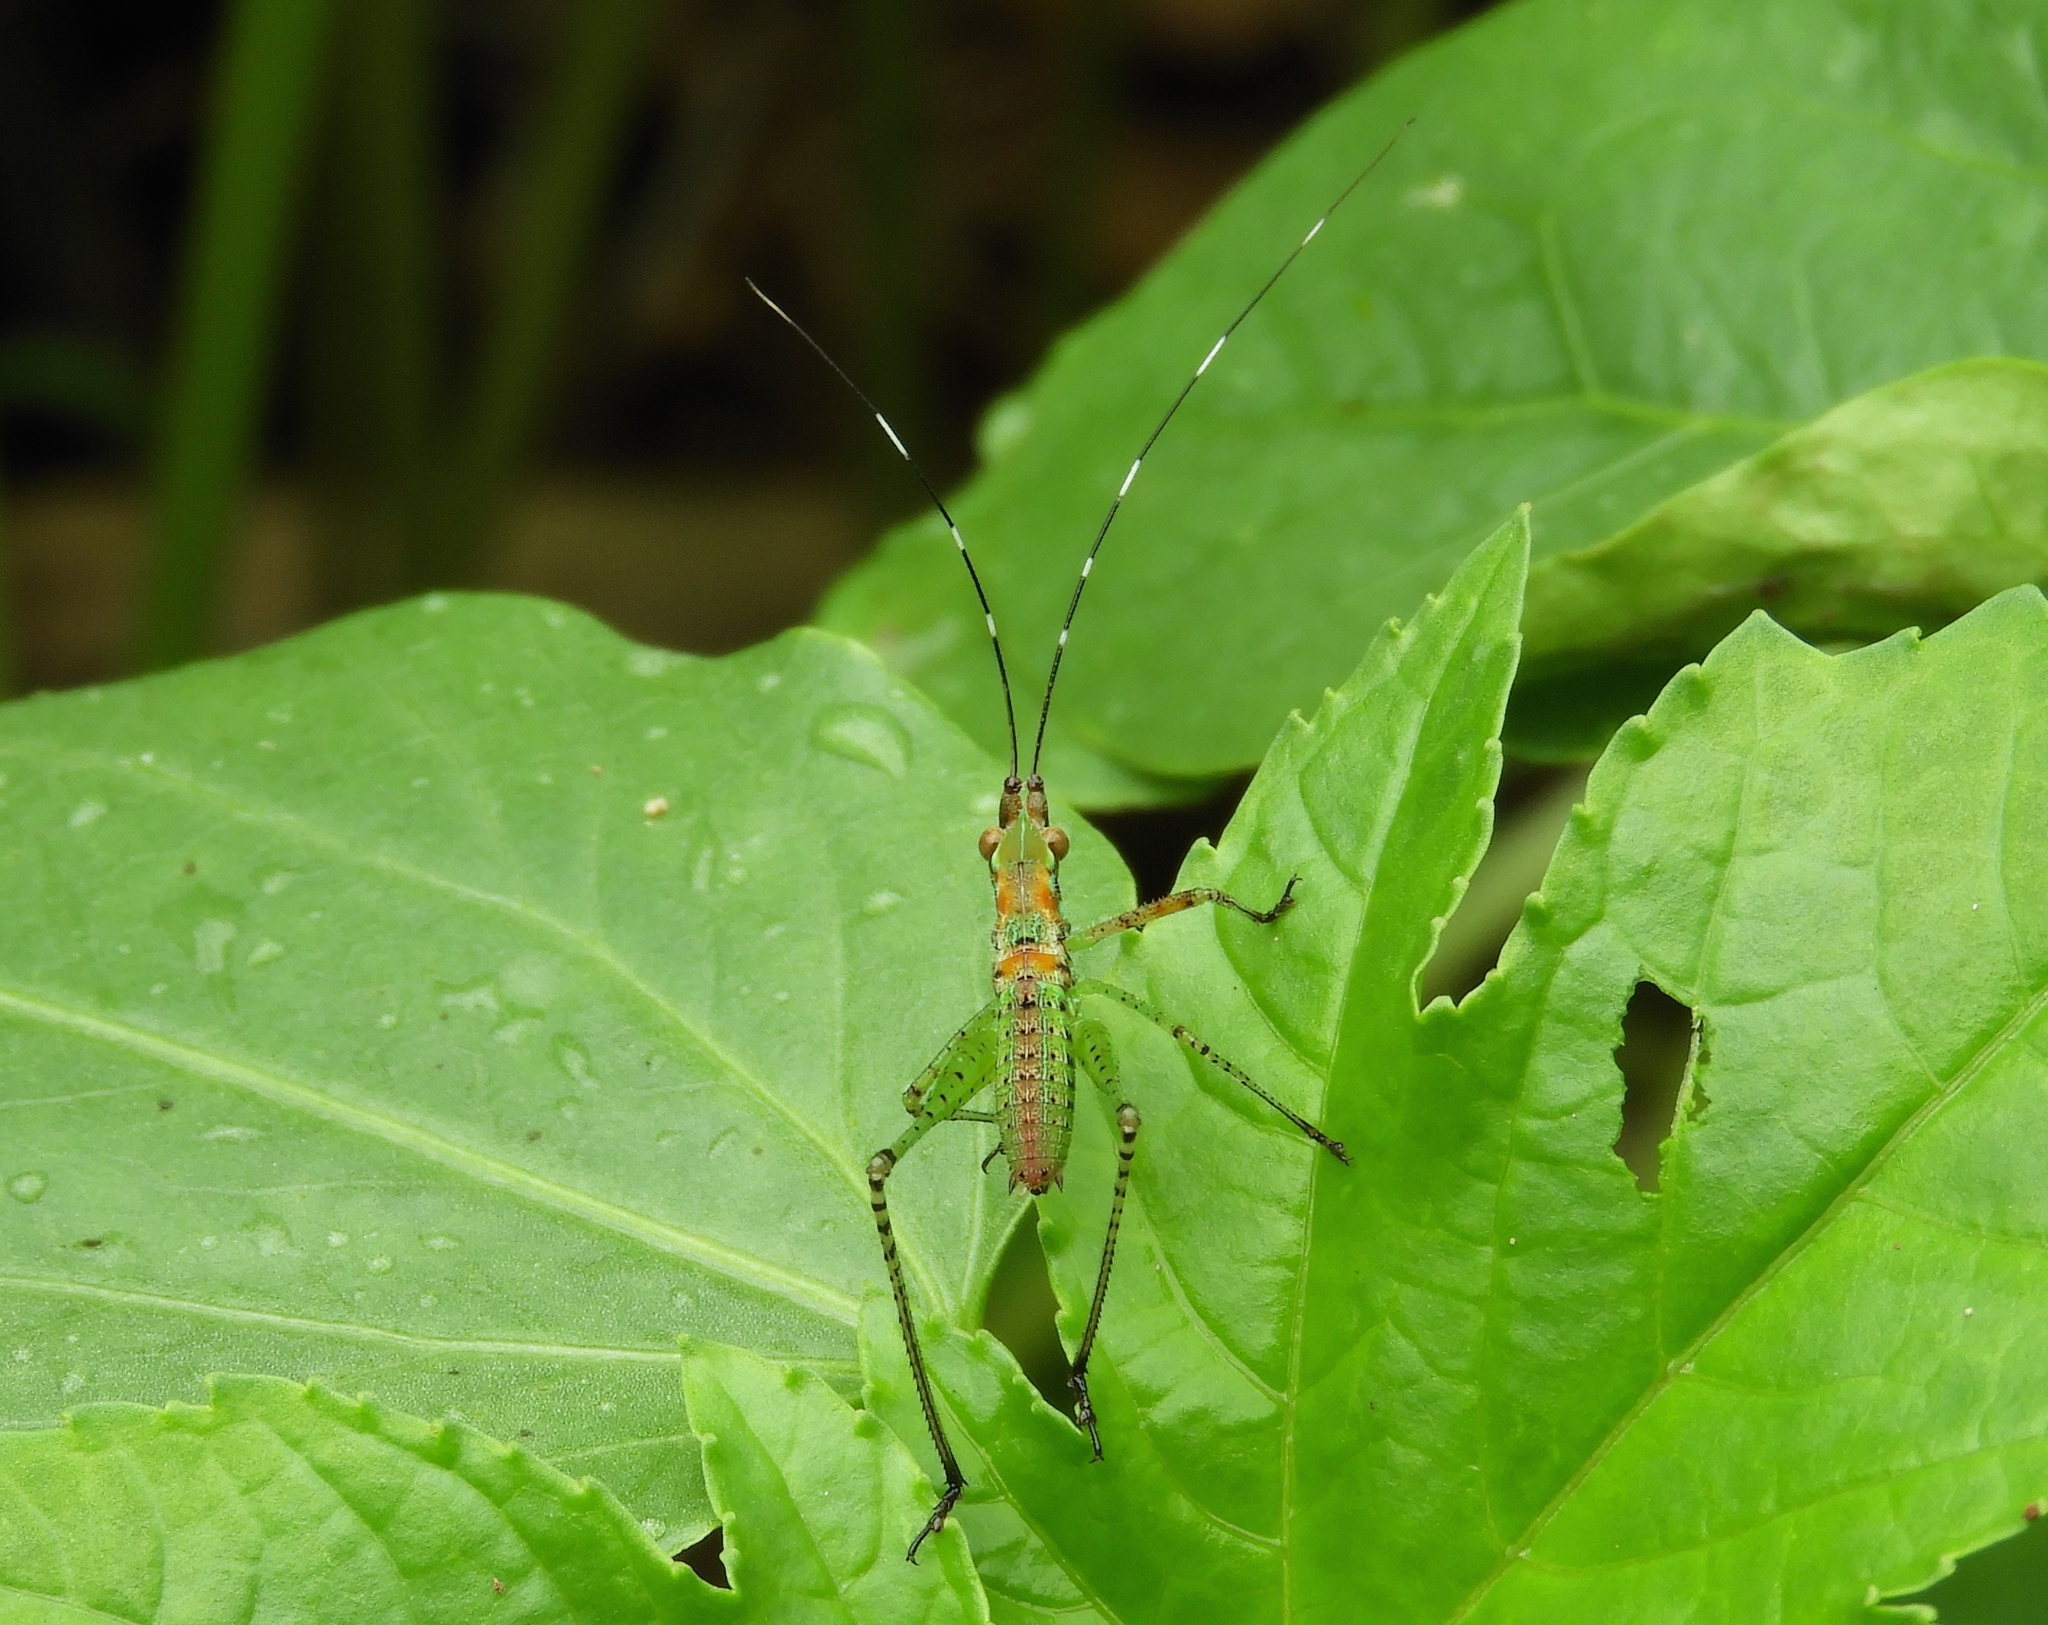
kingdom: Animalia
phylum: Arthropoda
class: Insecta
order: Orthoptera
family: Tettigoniidae
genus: Scudderia
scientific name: Scudderia
